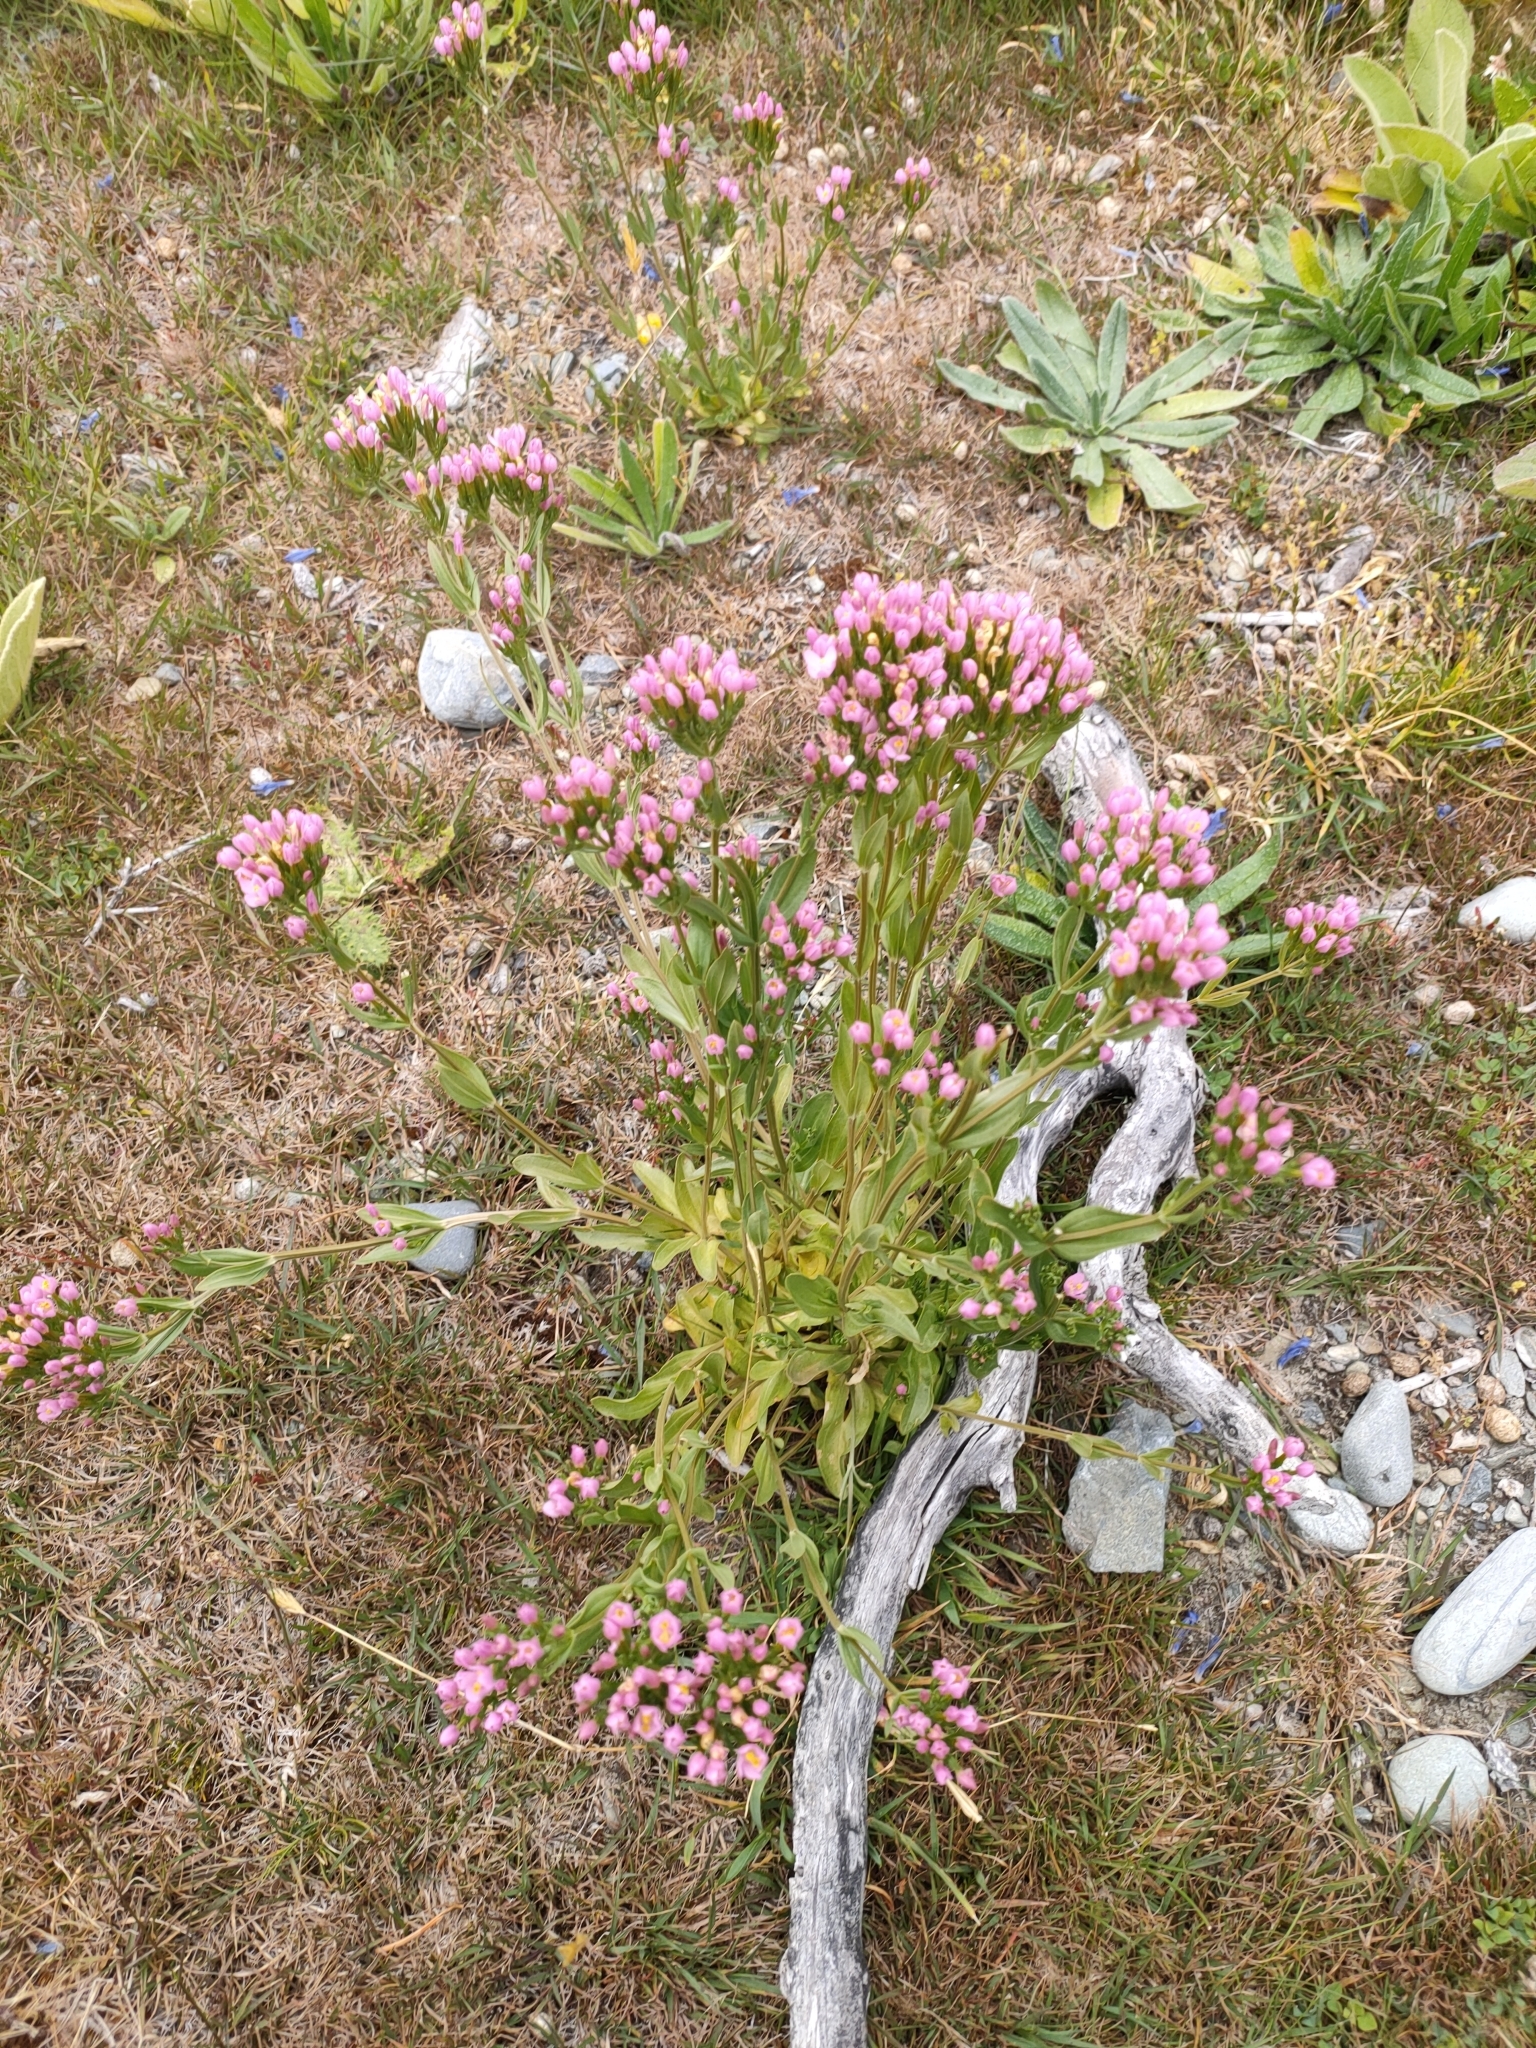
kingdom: Plantae
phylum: Tracheophyta
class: Magnoliopsida
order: Gentianales
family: Gentianaceae
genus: Centaurium
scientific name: Centaurium erythraea
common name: Common centaury
